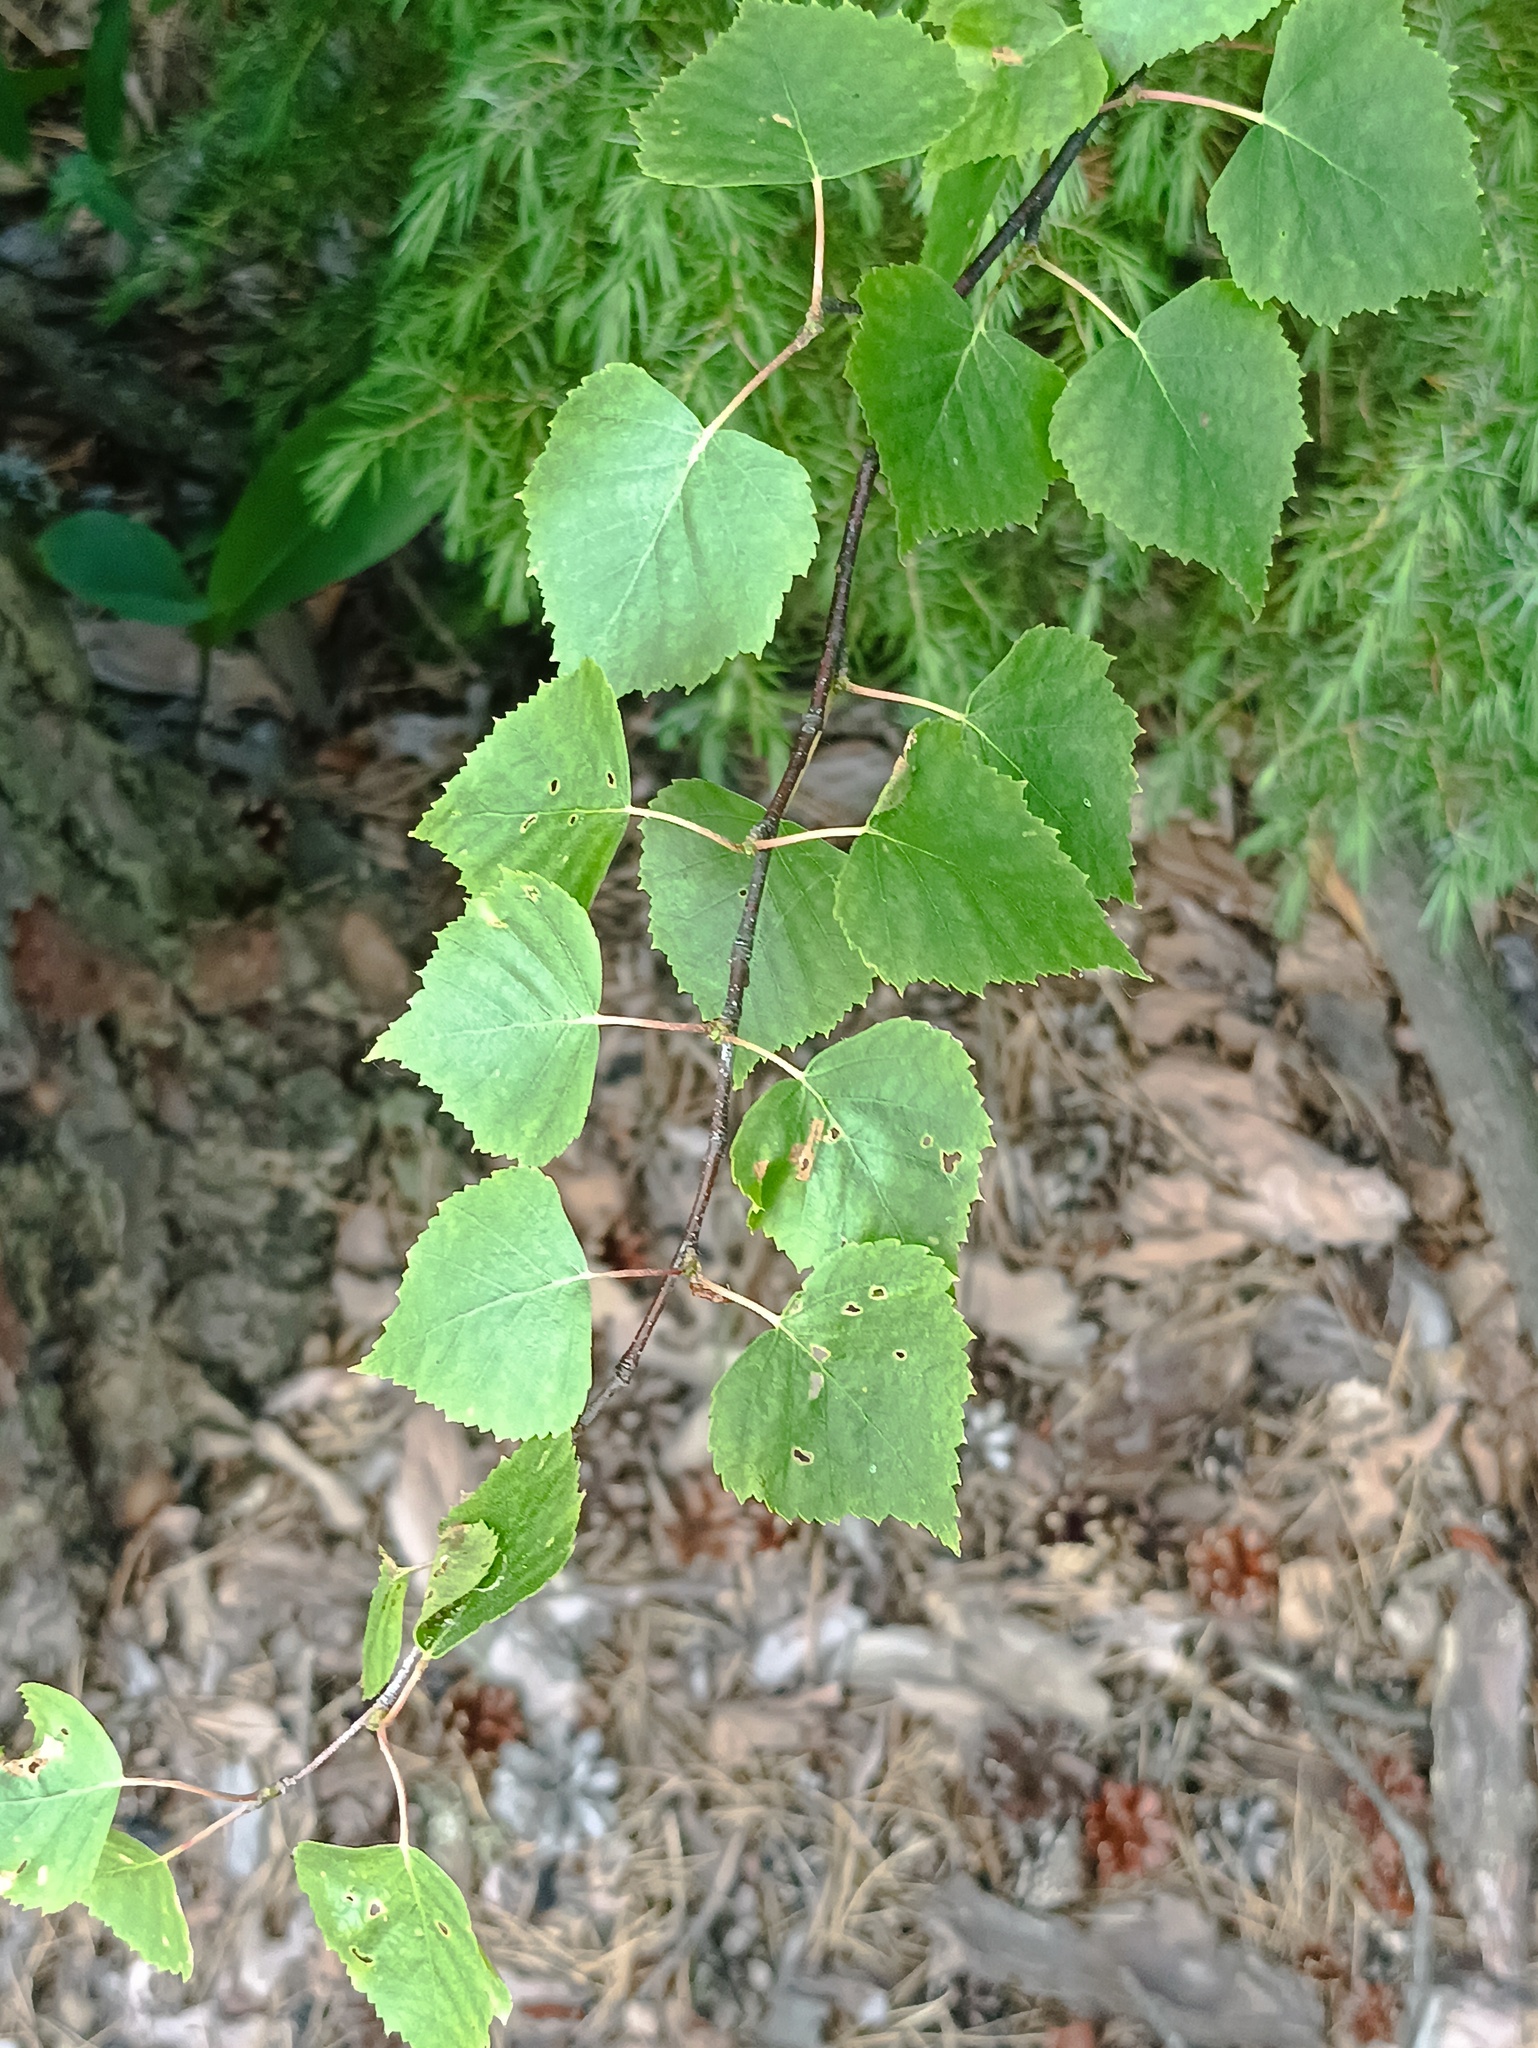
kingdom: Plantae
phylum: Tracheophyta
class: Magnoliopsida
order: Fagales
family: Betulaceae
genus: Betula
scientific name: Betula pendula
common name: Silver birch
